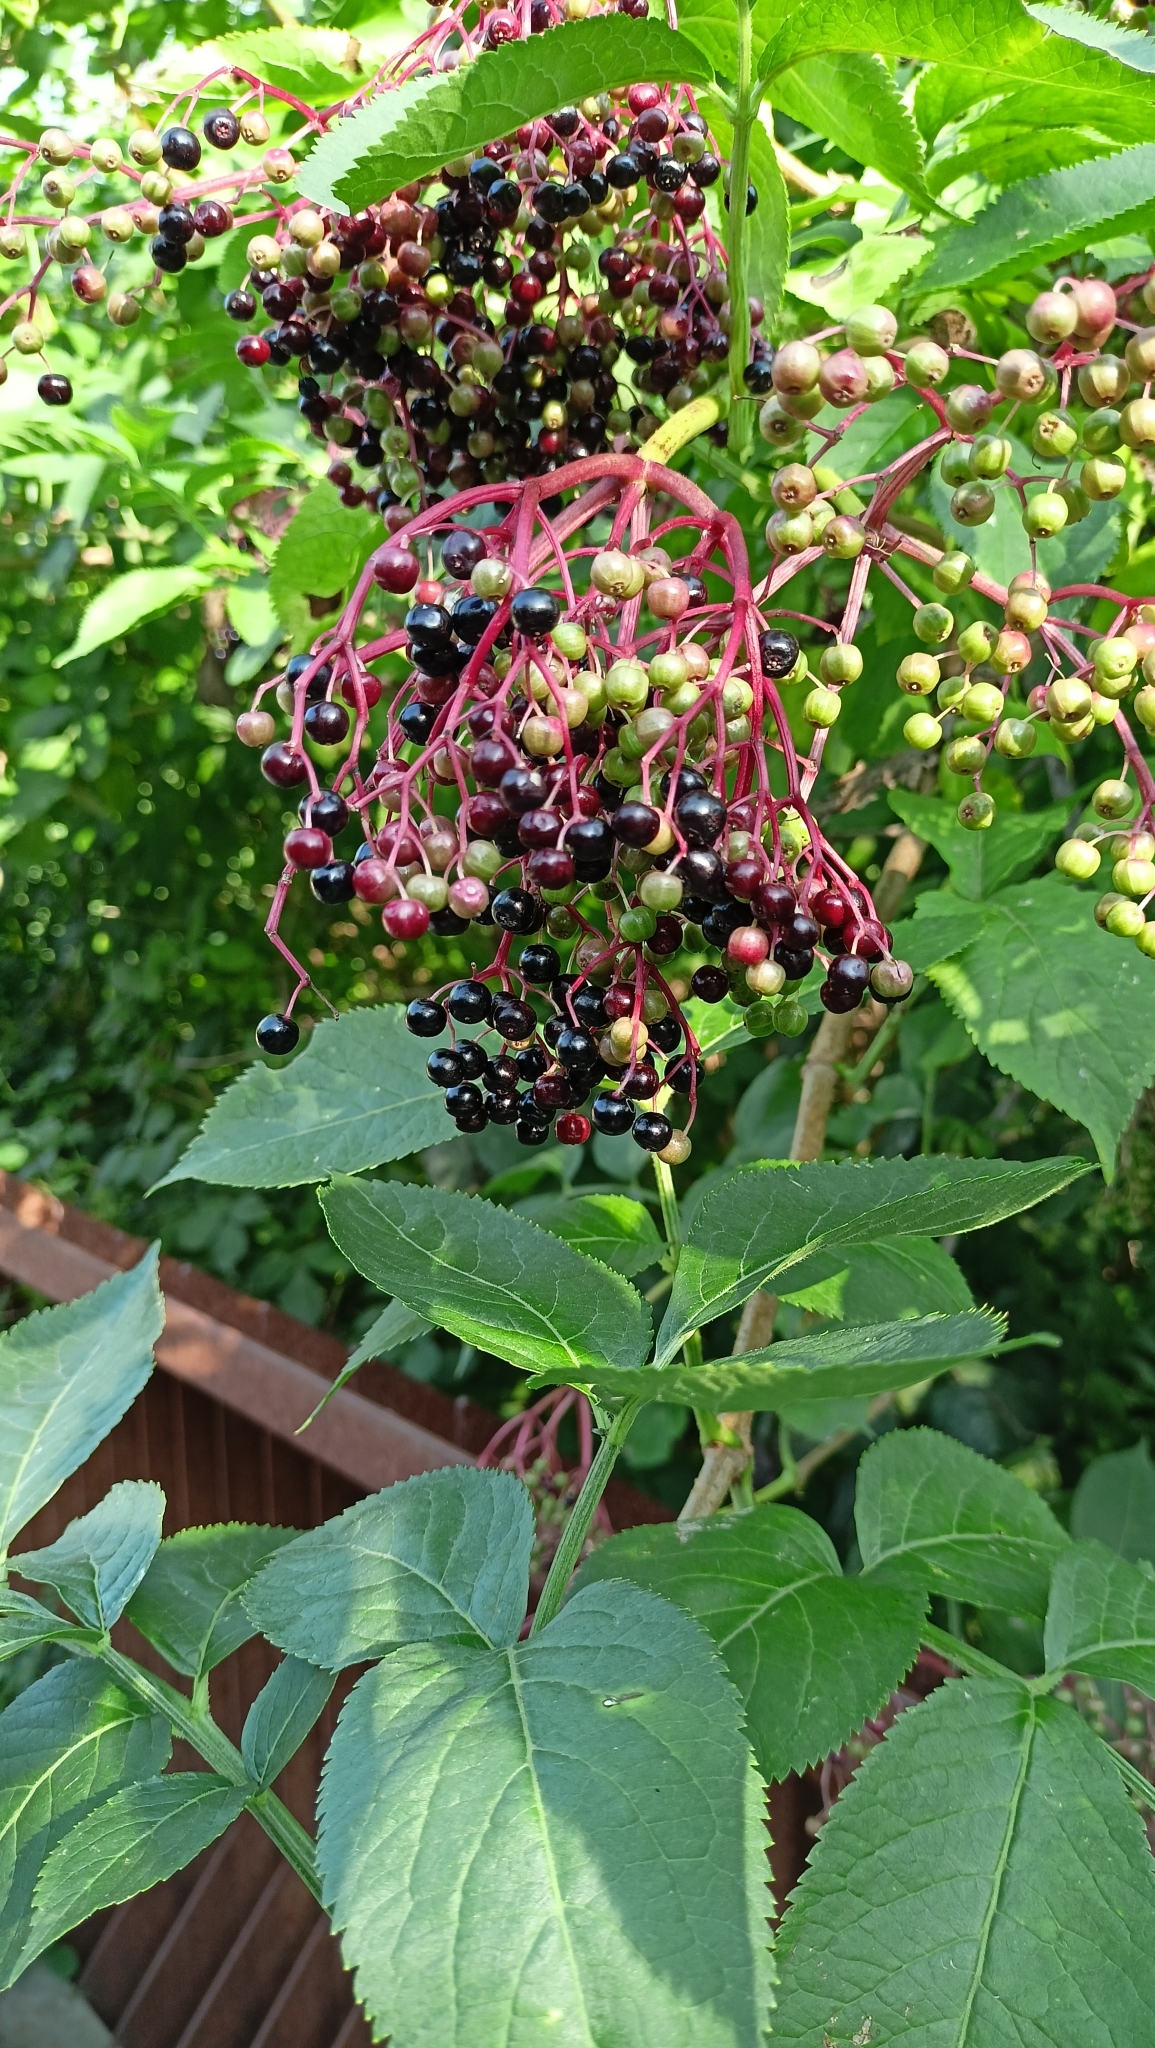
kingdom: Plantae
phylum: Tracheophyta
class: Magnoliopsida
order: Dipsacales
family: Viburnaceae
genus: Sambucus
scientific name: Sambucus nigra
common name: Elder
